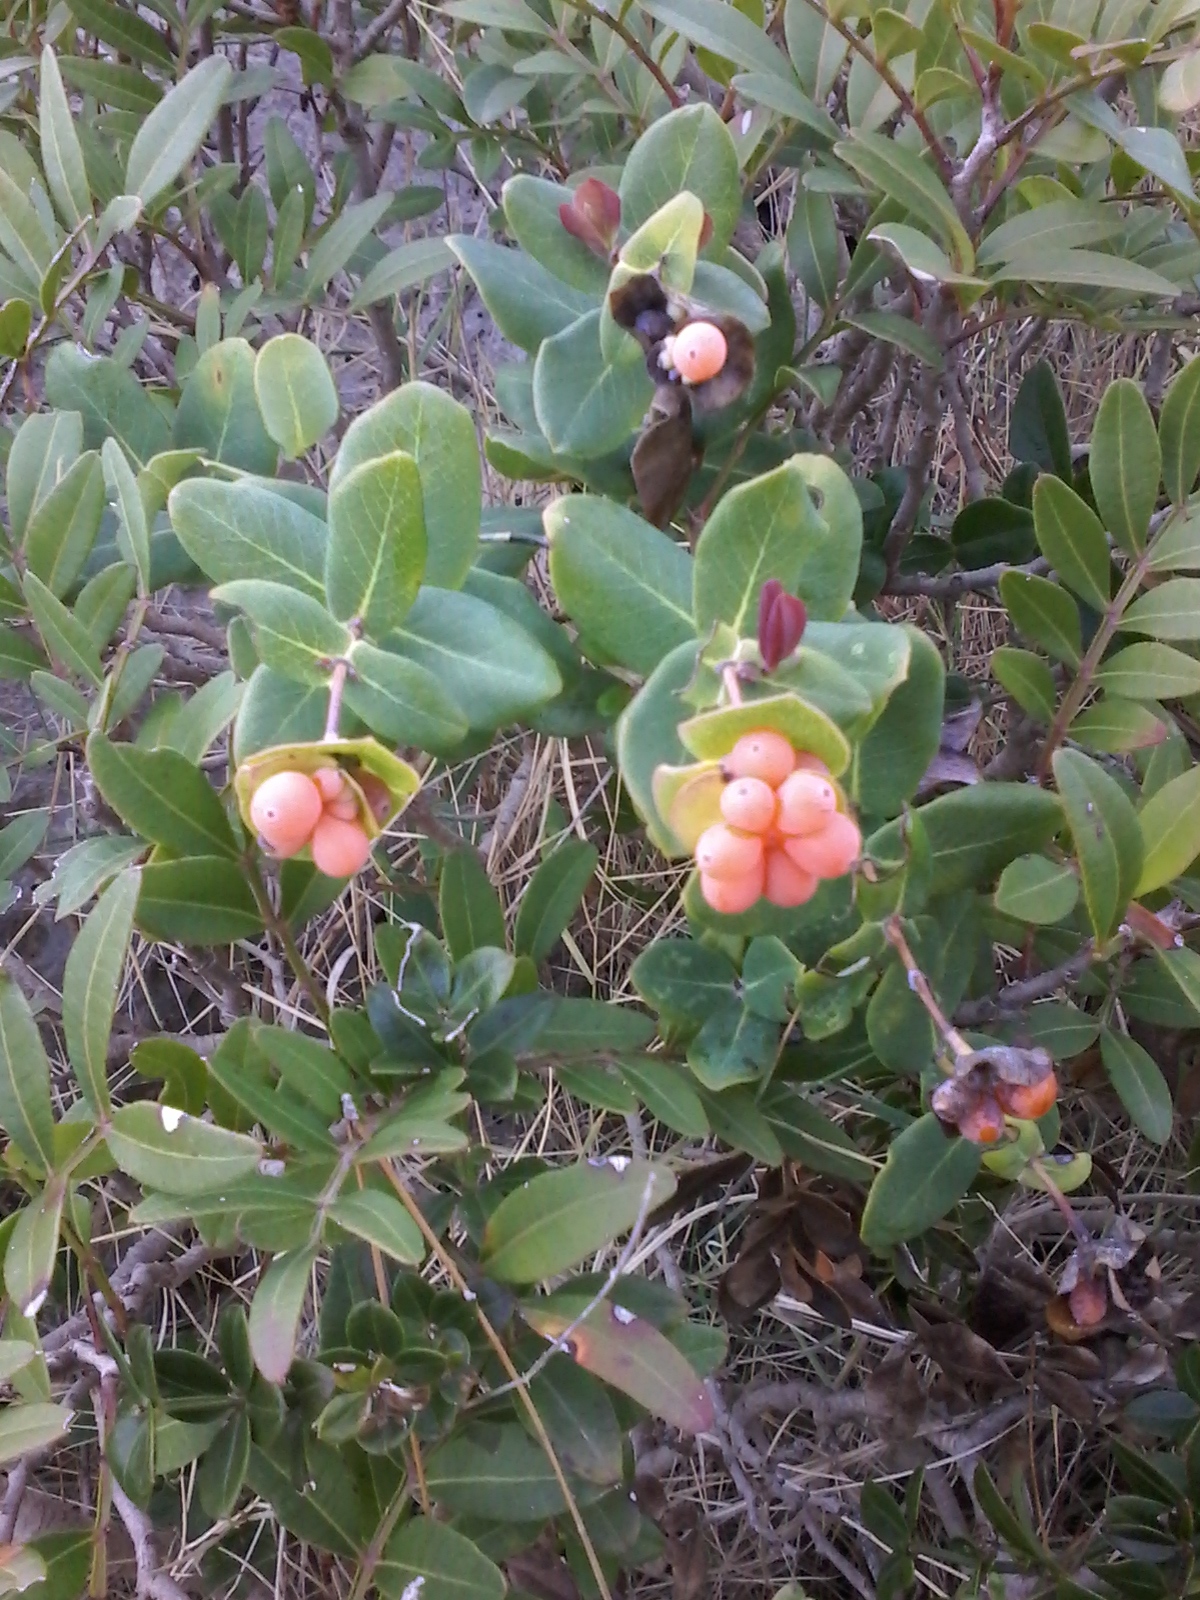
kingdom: Plantae
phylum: Tracheophyta
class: Magnoliopsida
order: Dipsacales
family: Caprifoliaceae
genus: Lonicera
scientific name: Lonicera implexa
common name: Minorca honeysuckle
